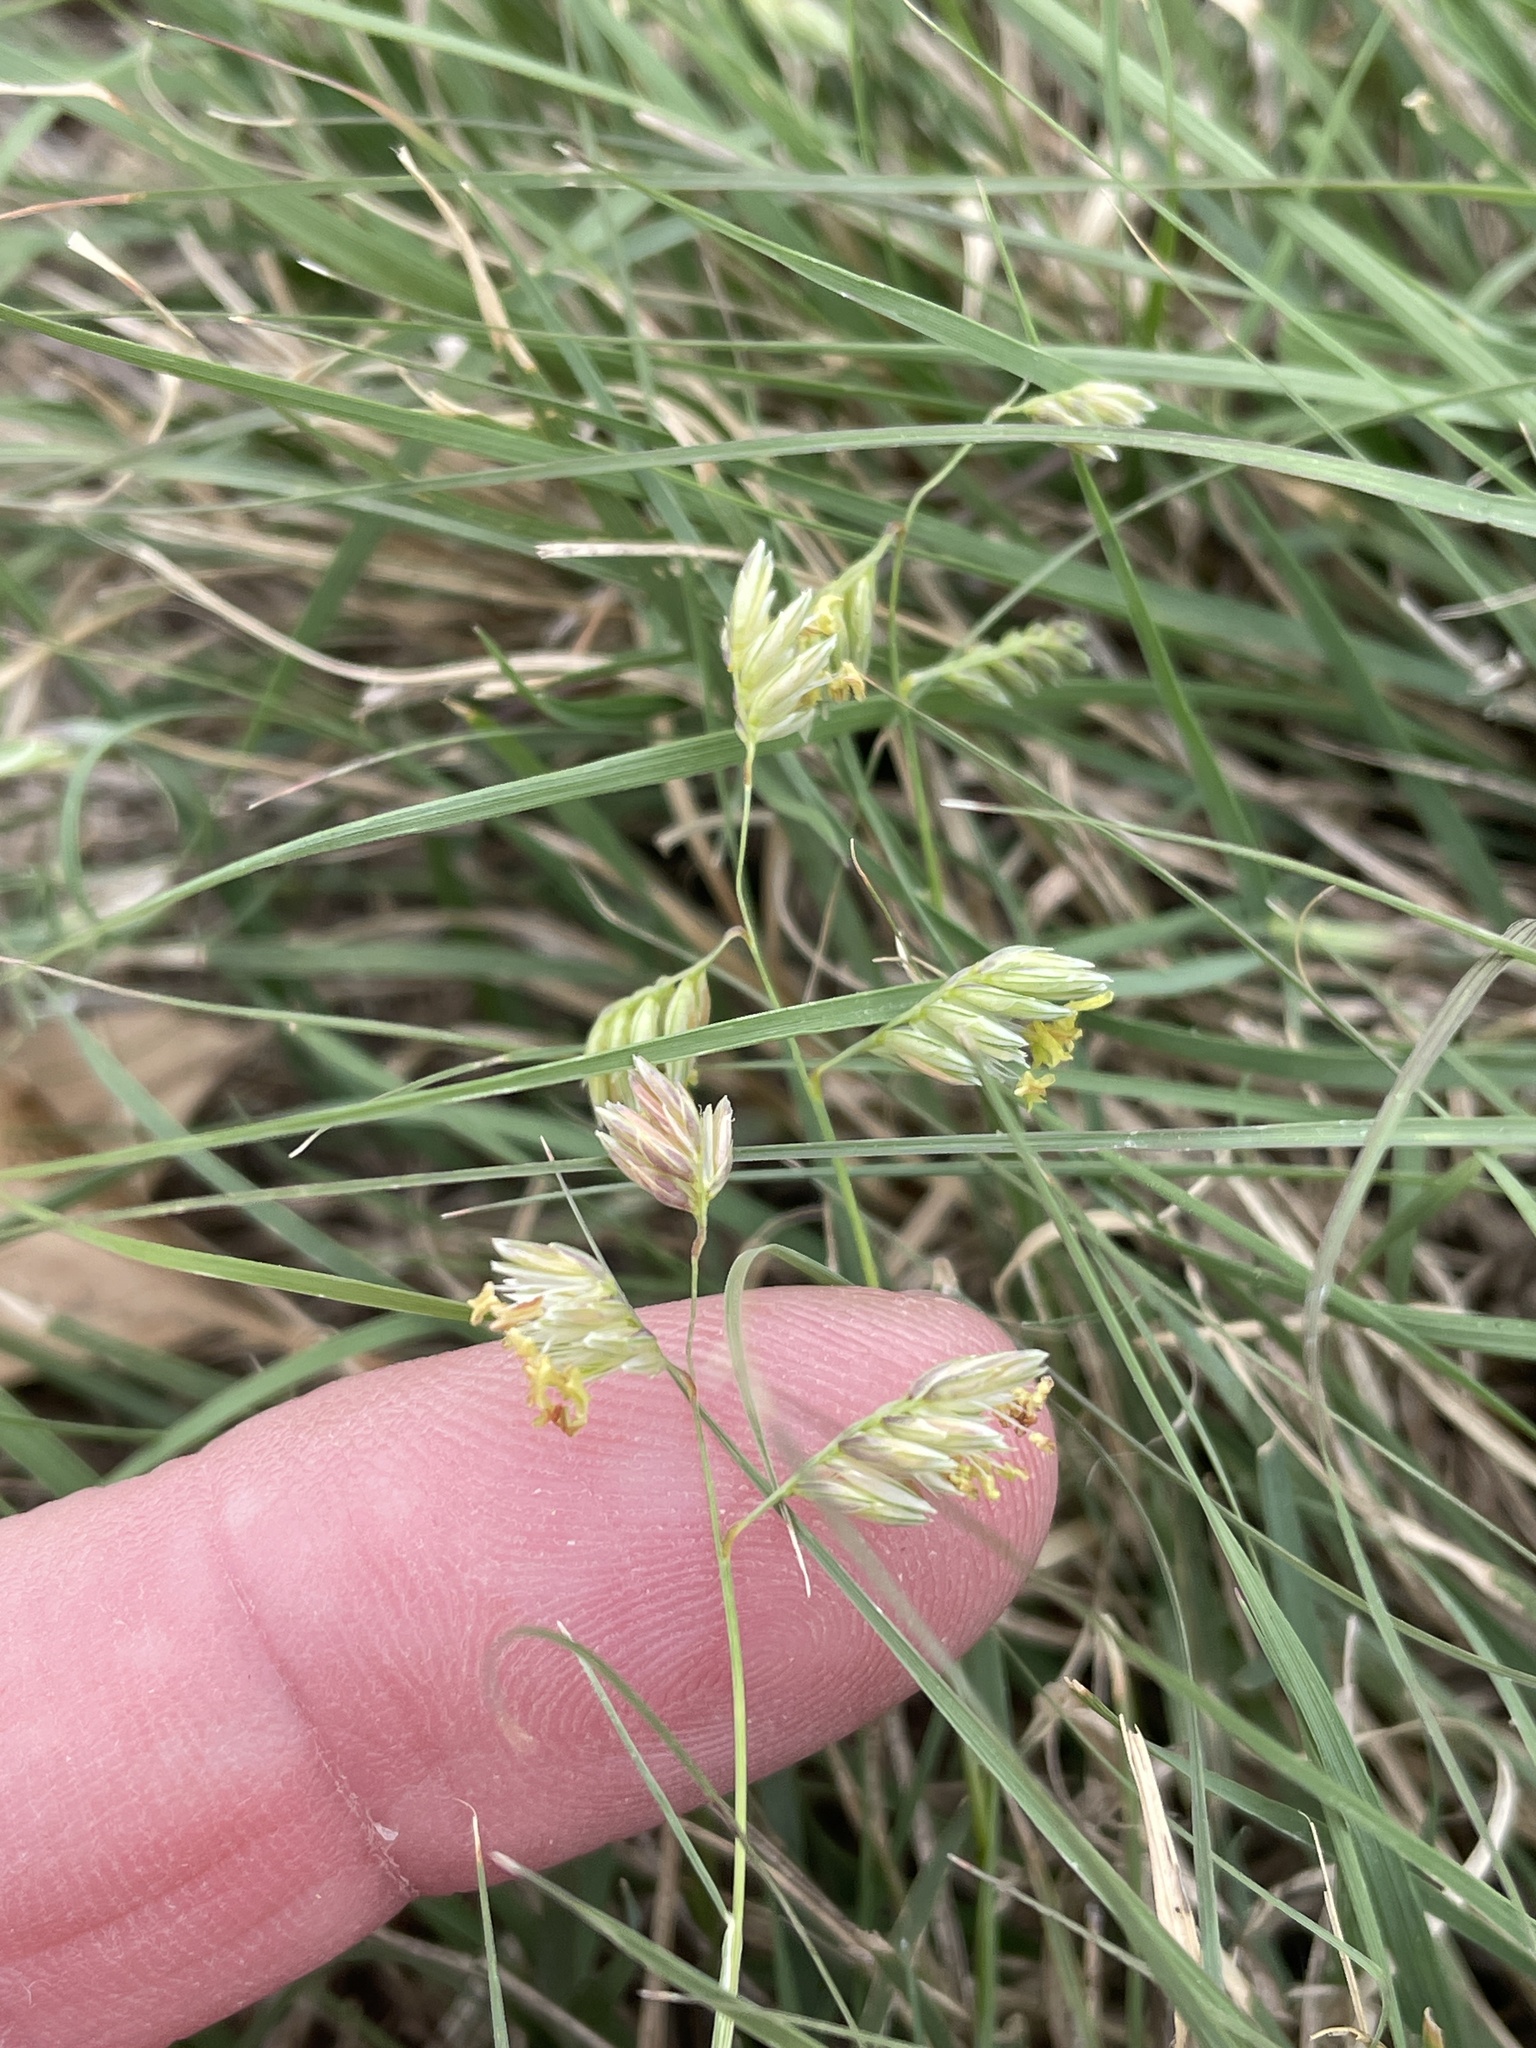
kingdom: Plantae
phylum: Tracheophyta
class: Liliopsida
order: Poales
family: Poaceae
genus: Bouteloua
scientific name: Bouteloua dactyloides
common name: Buffalo grass
